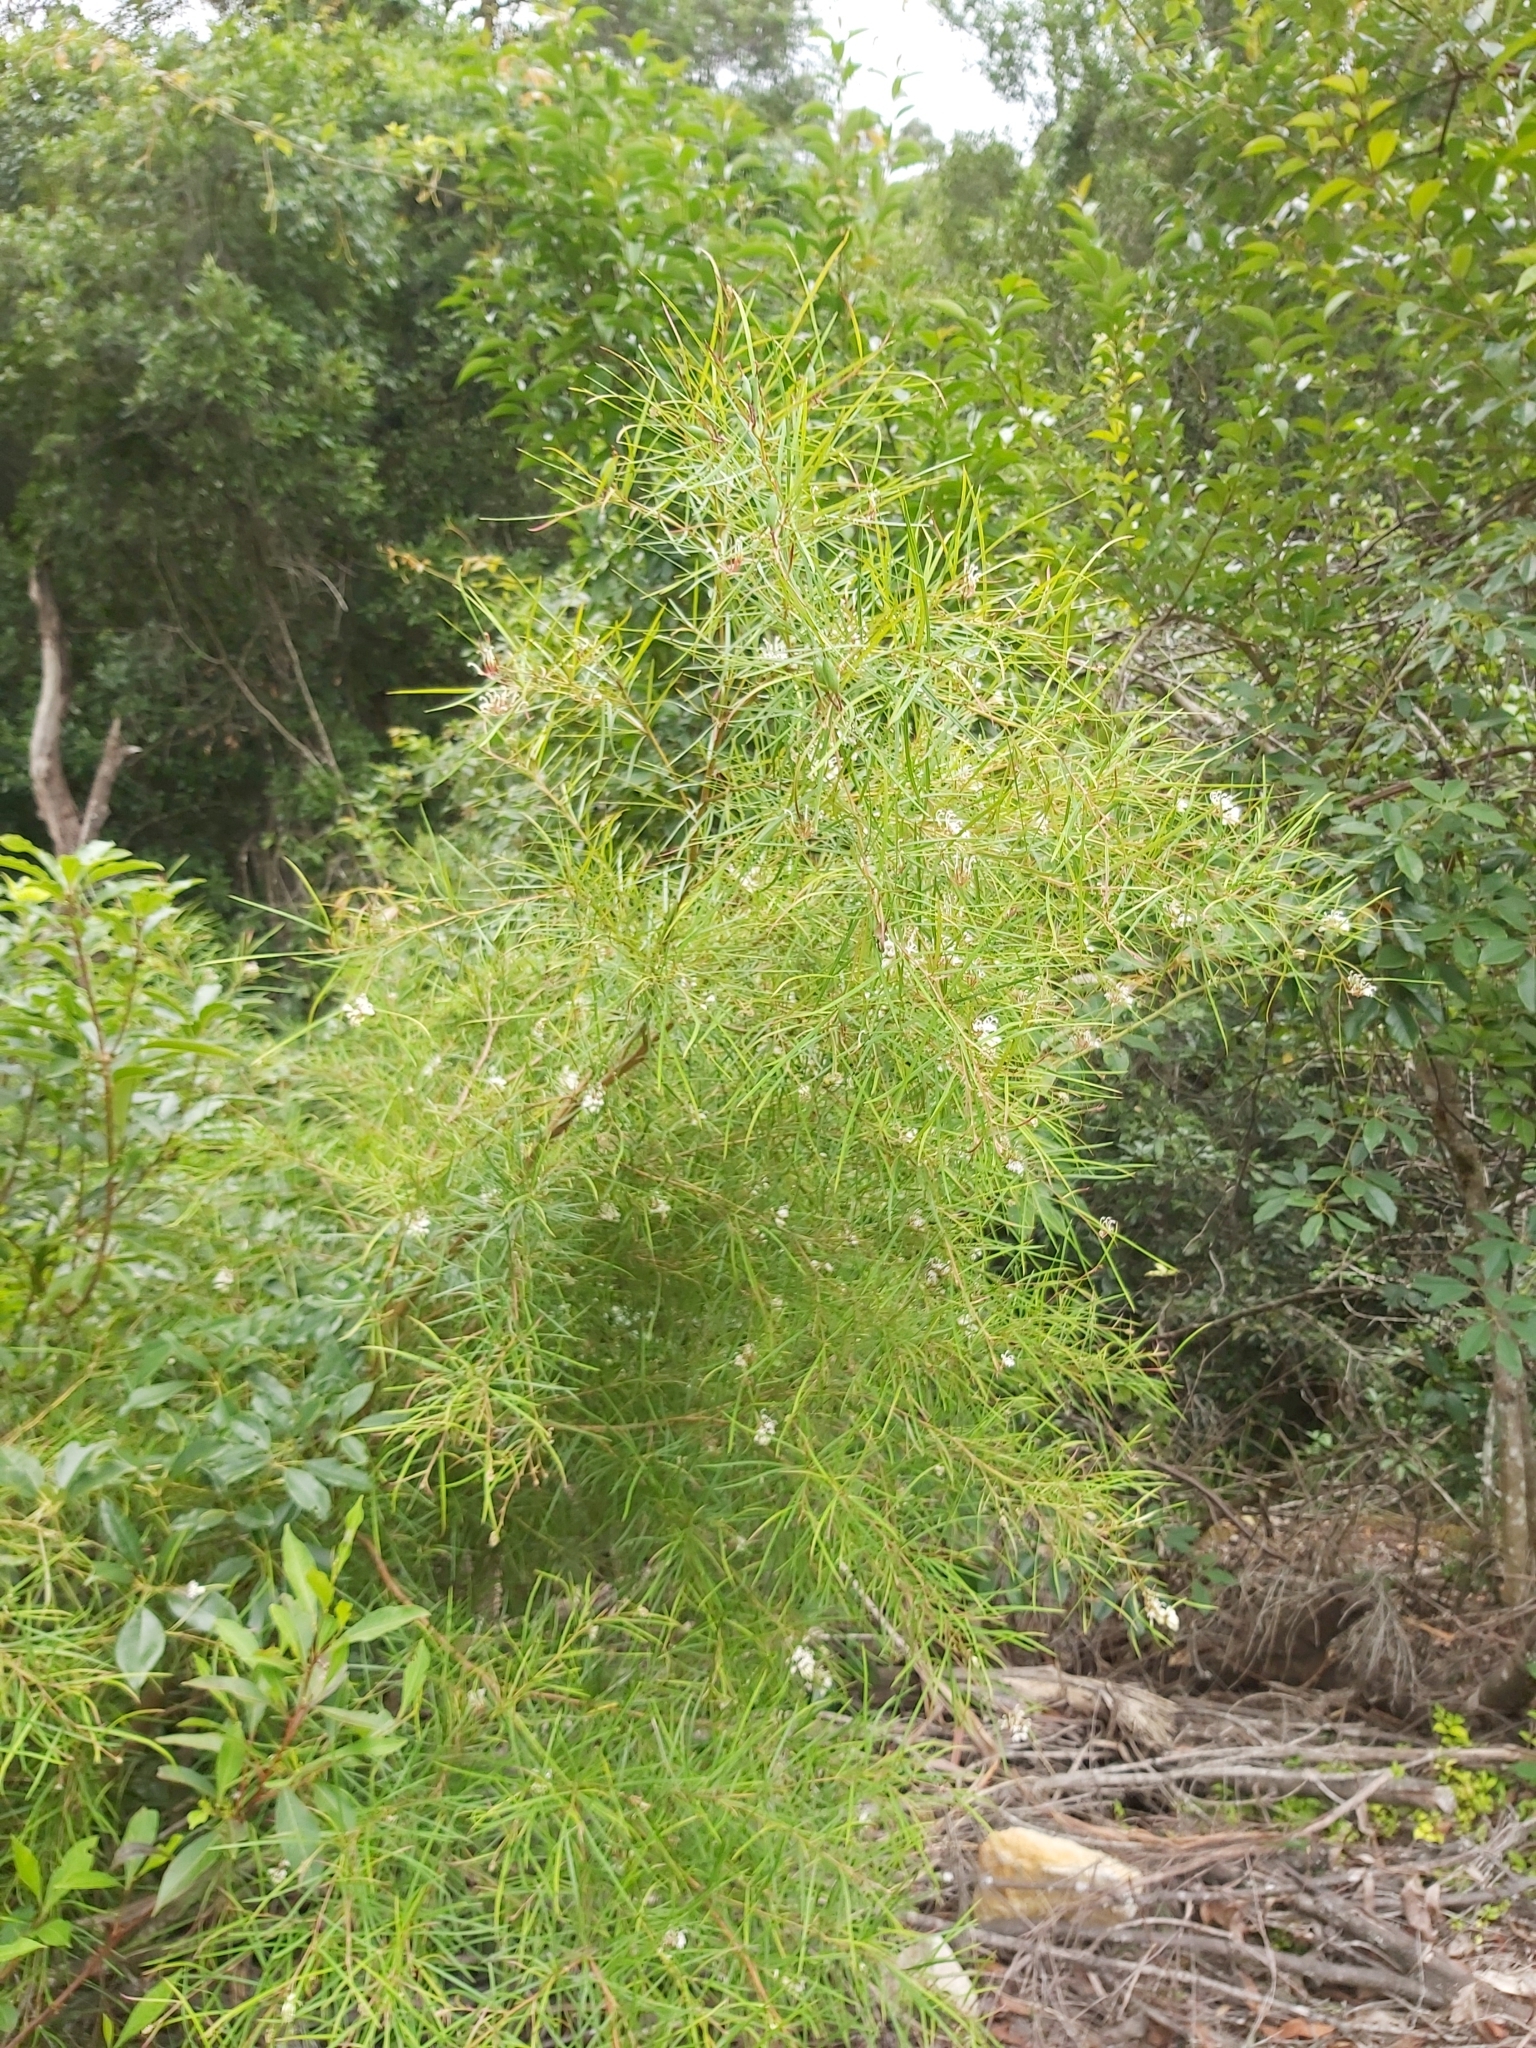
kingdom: Plantae
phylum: Tracheophyta
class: Magnoliopsida
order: Proteales
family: Proteaceae
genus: Grevillea
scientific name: Grevillea linearifolia
